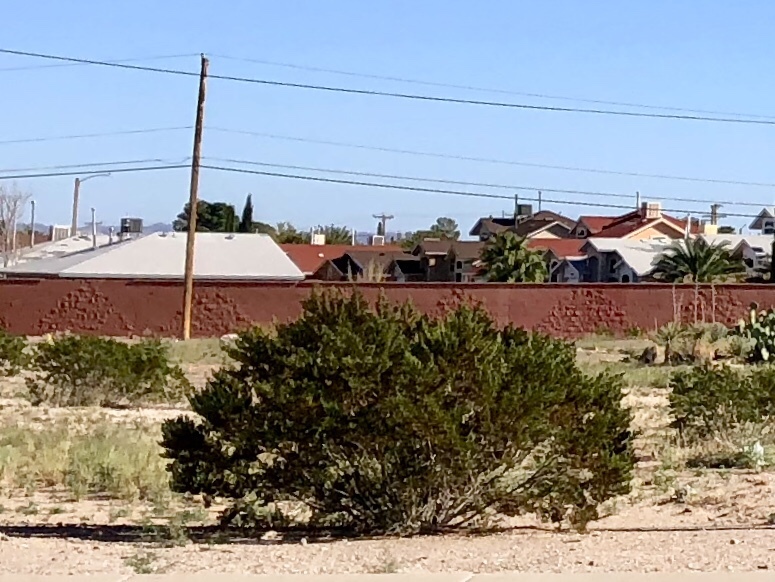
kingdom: Plantae
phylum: Tracheophyta
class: Magnoliopsida
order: Zygophyllales
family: Zygophyllaceae
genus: Larrea
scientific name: Larrea tridentata
